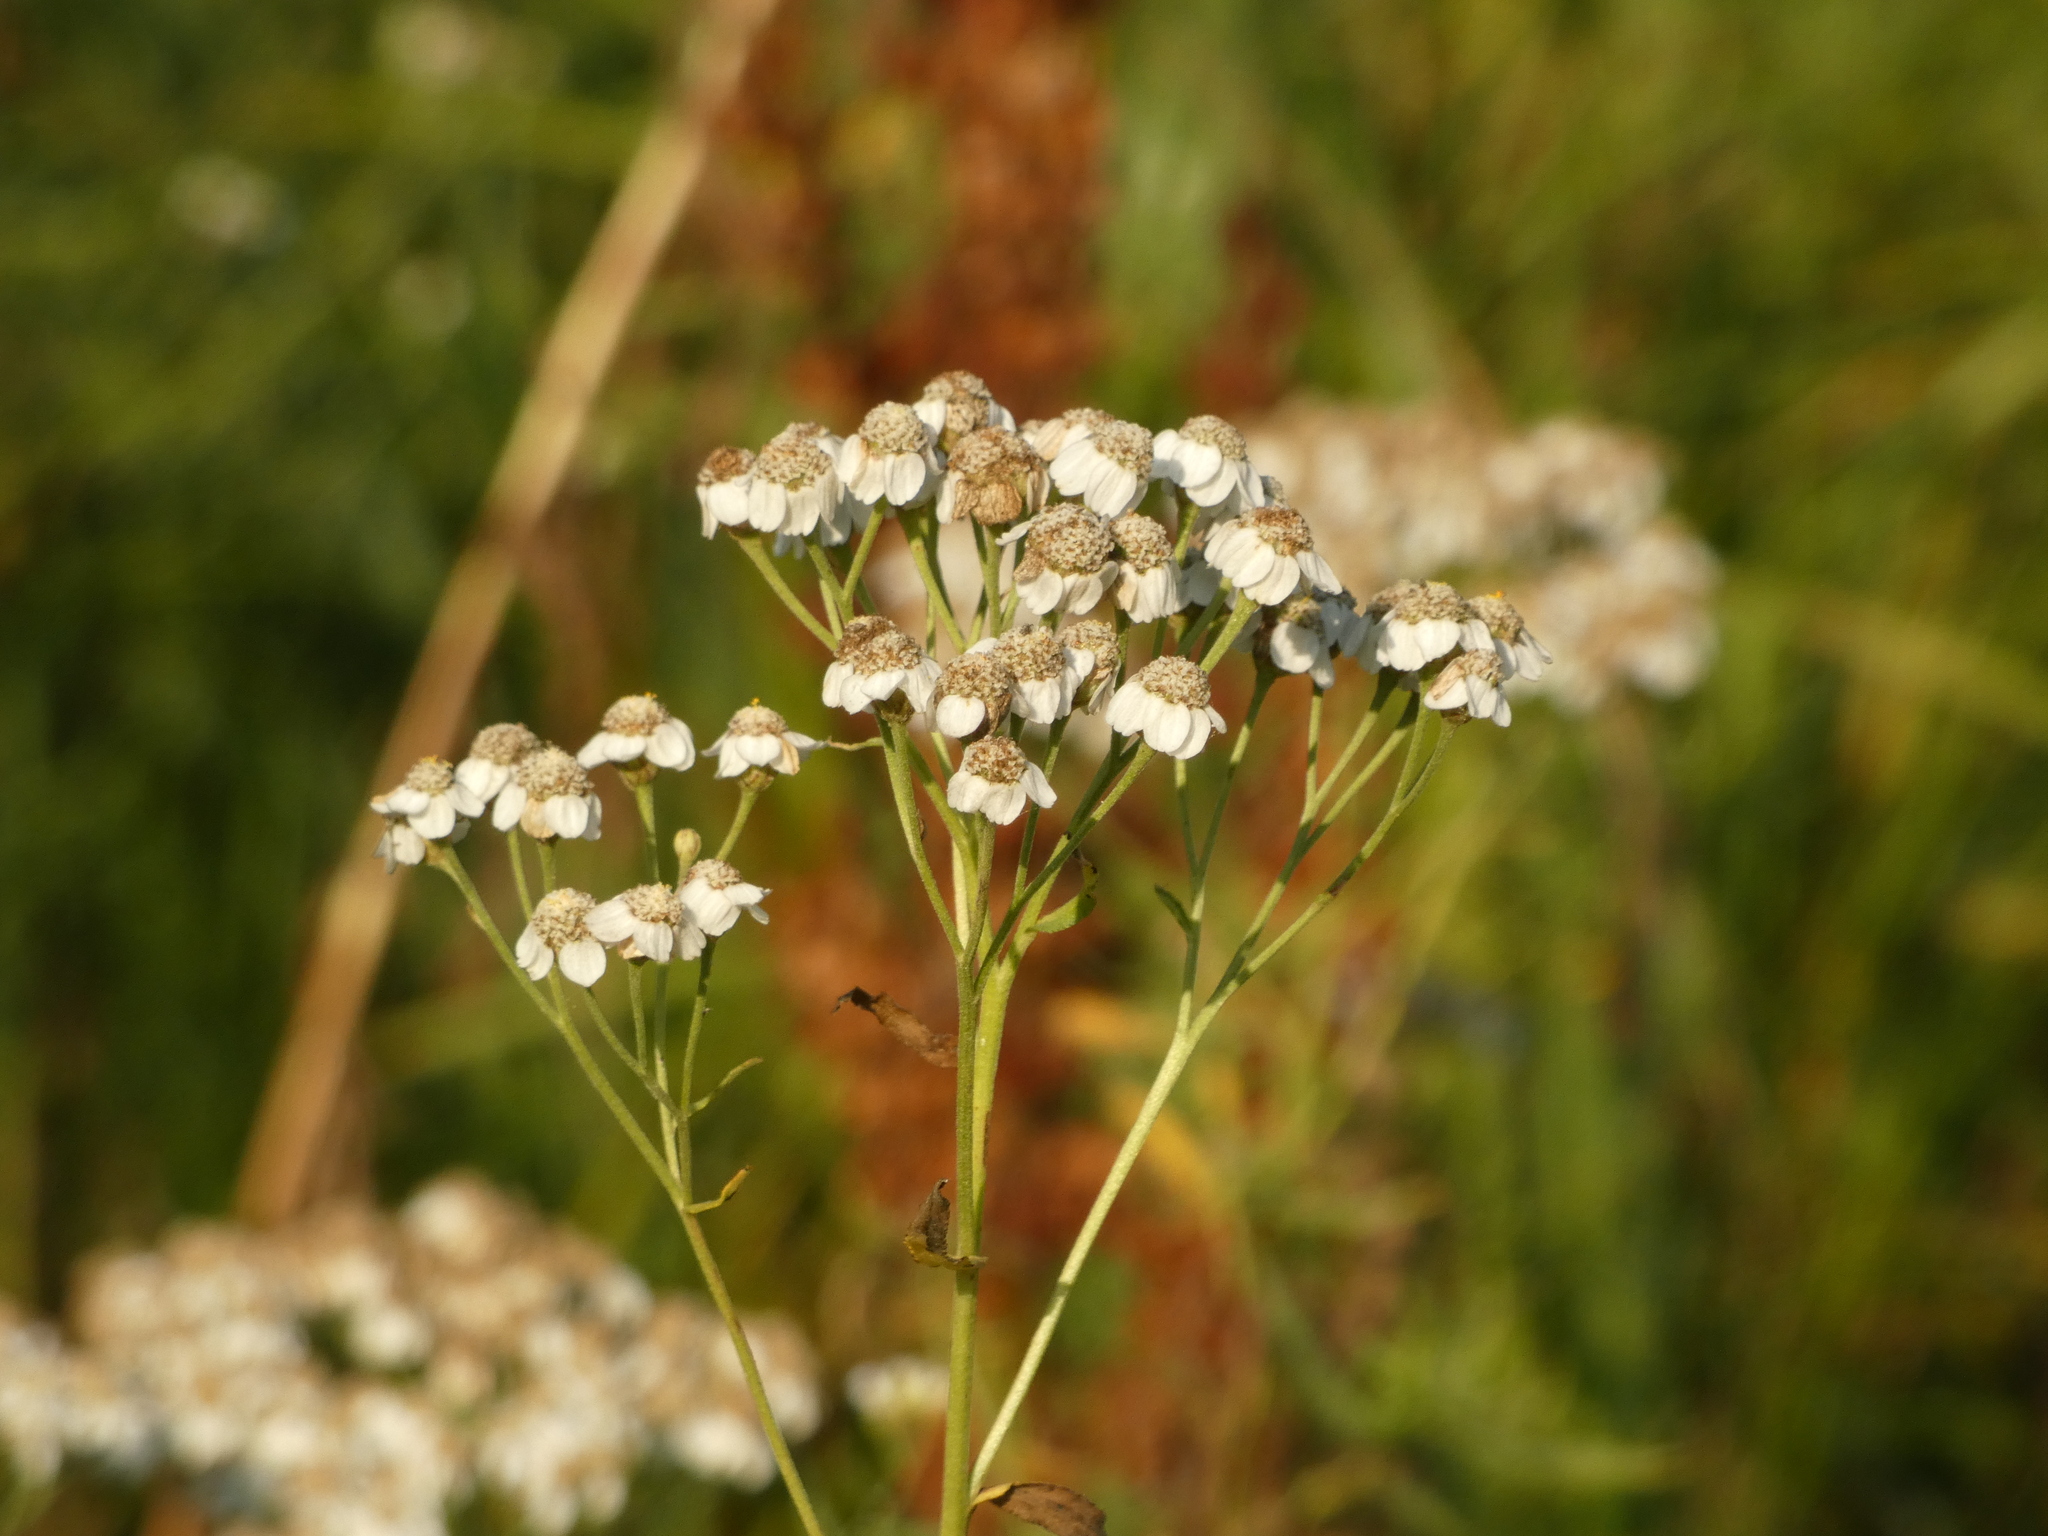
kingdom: Plantae
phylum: Tracheophyta
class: Magnoliopsida
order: Asterales
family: Asteraceae
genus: Achillea
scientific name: Achillea salicifolia
